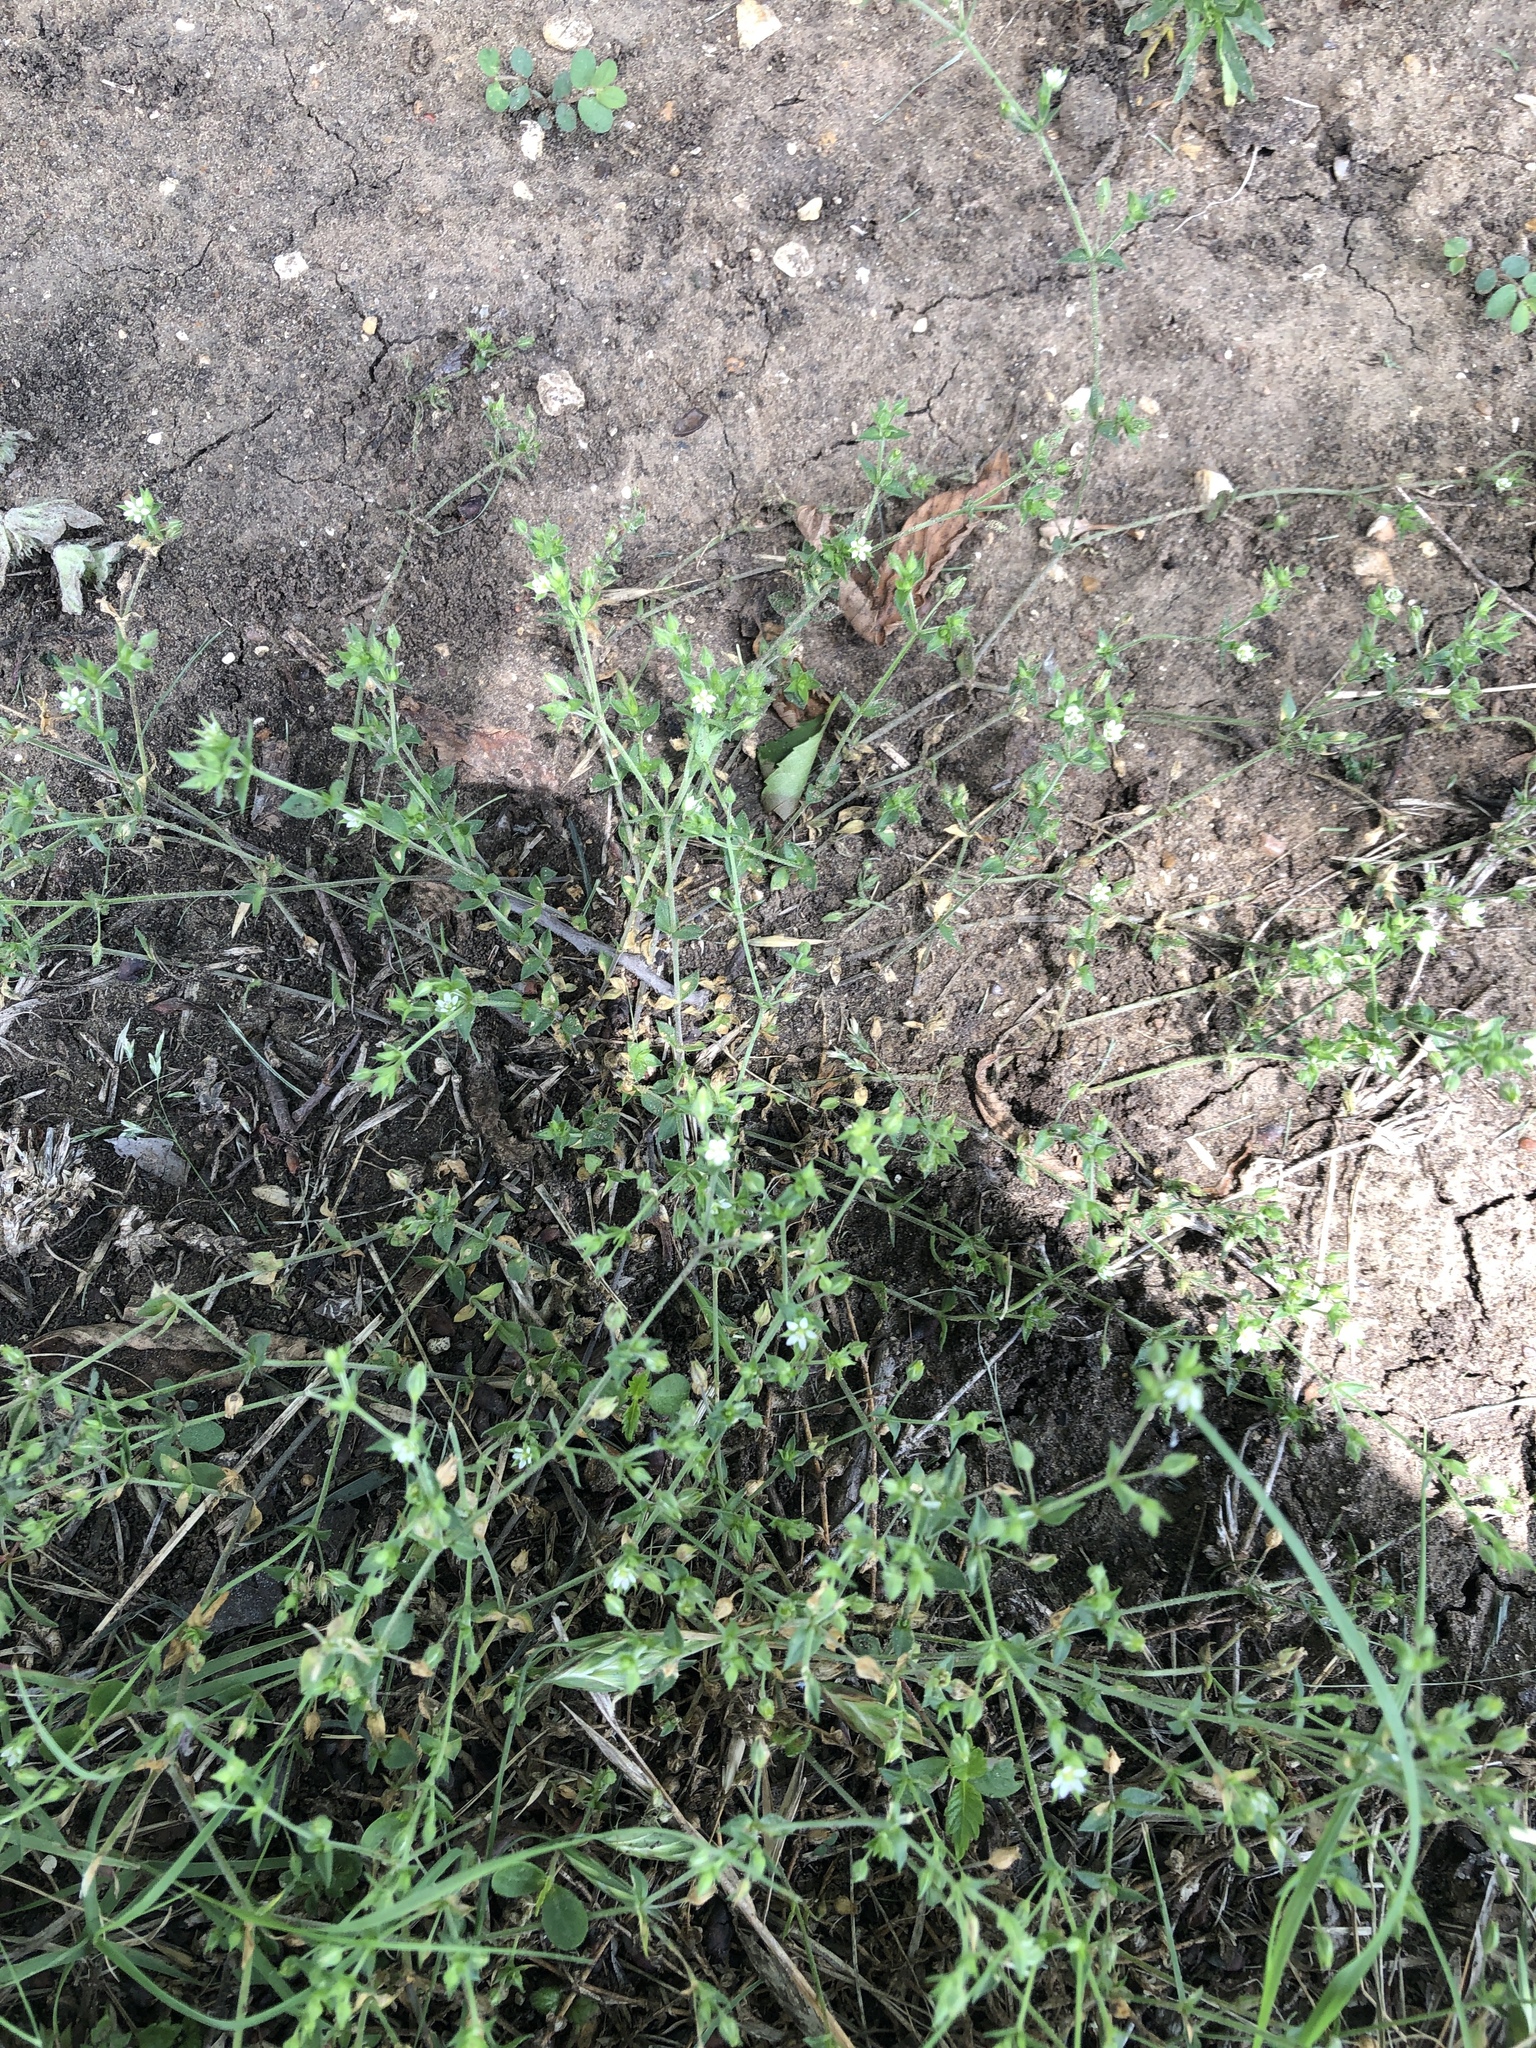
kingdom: Plantae
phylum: Tracheophyta
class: Magnoliopsida
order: Caryophyllales
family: Caryophyllaceae
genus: Arenaria
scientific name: Arenaria serpyllifolia
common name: Thyme-leaved sandwort
